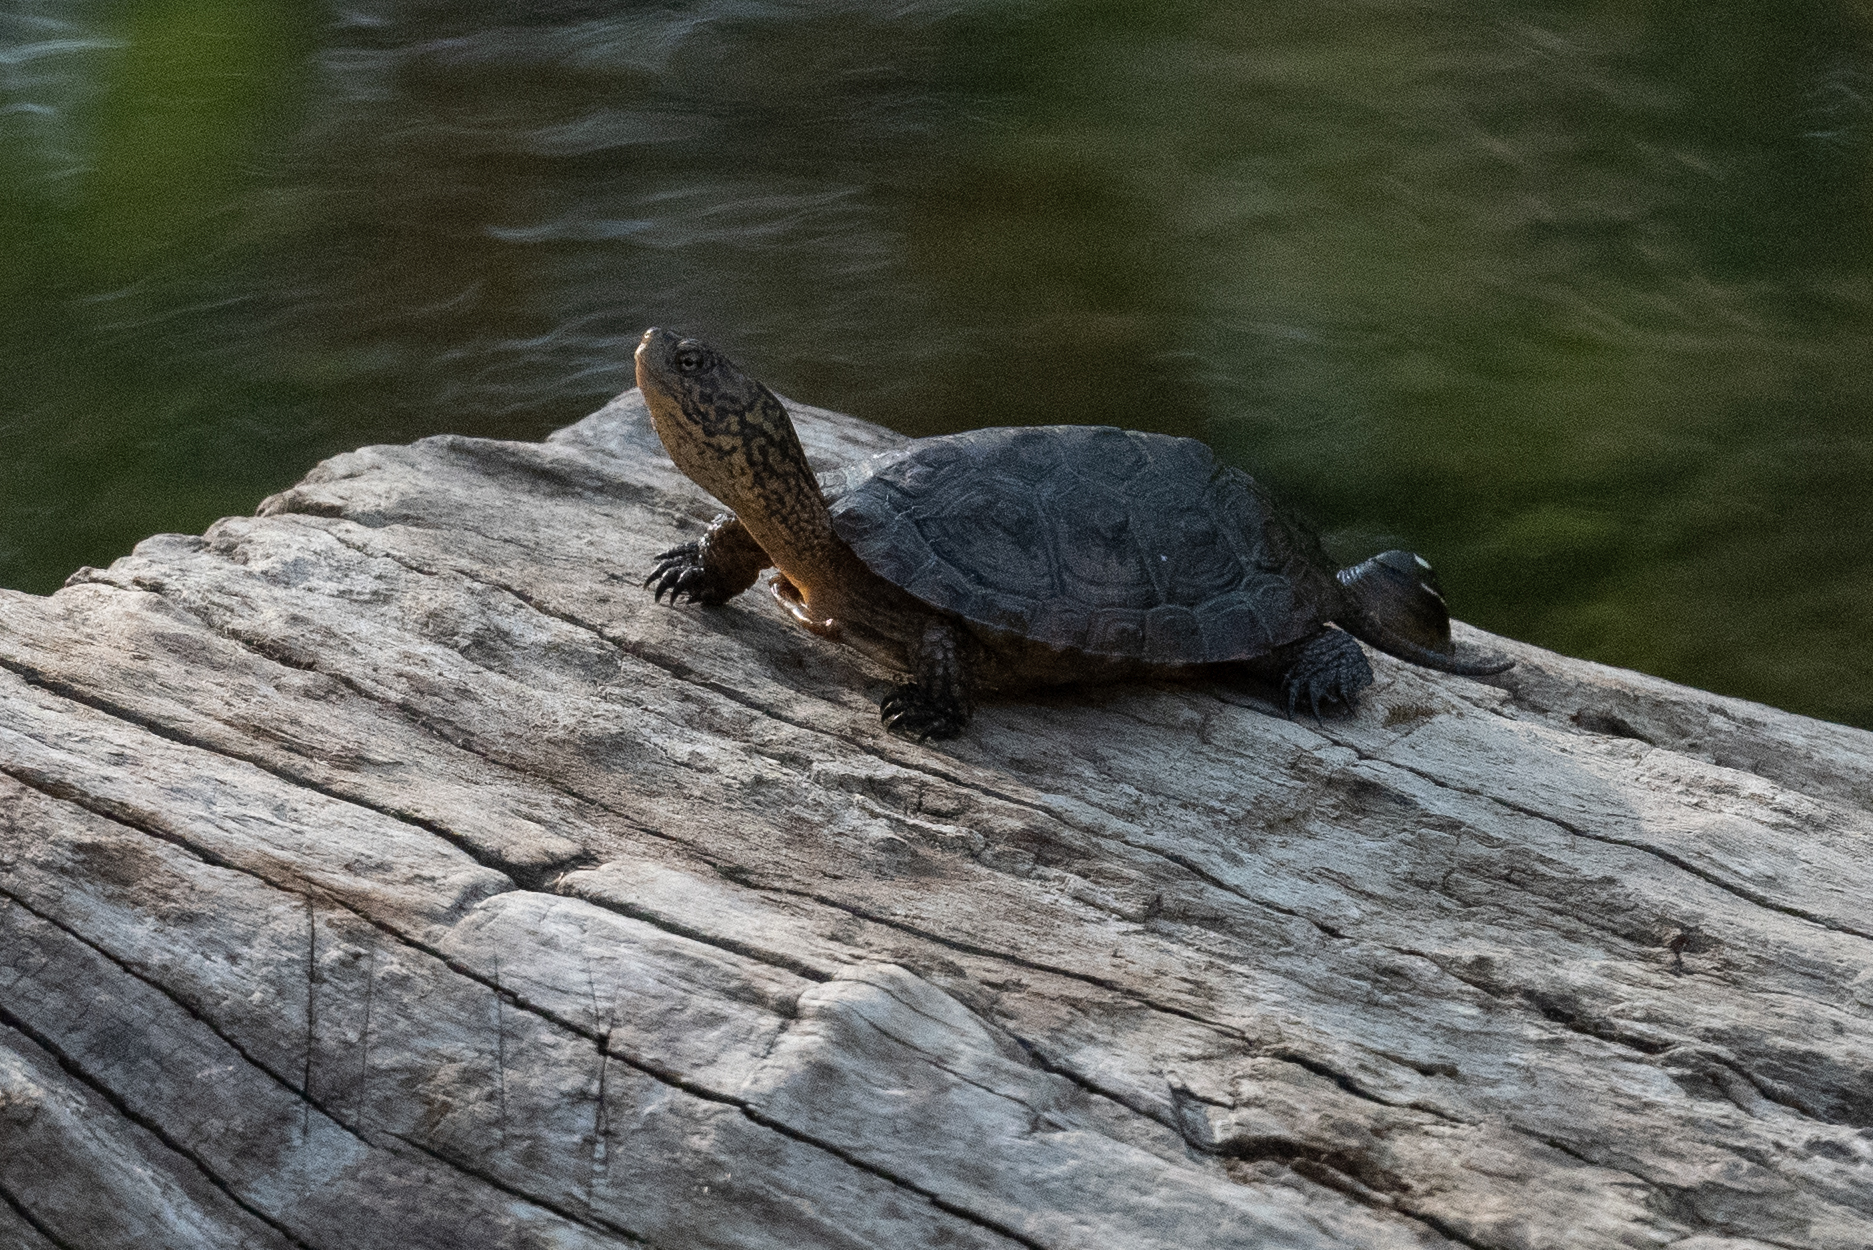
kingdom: Animalia
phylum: Chordata
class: Testudines
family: Emydidae
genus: Actinemys
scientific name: Actinemys marmorata
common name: Western pond turtle
